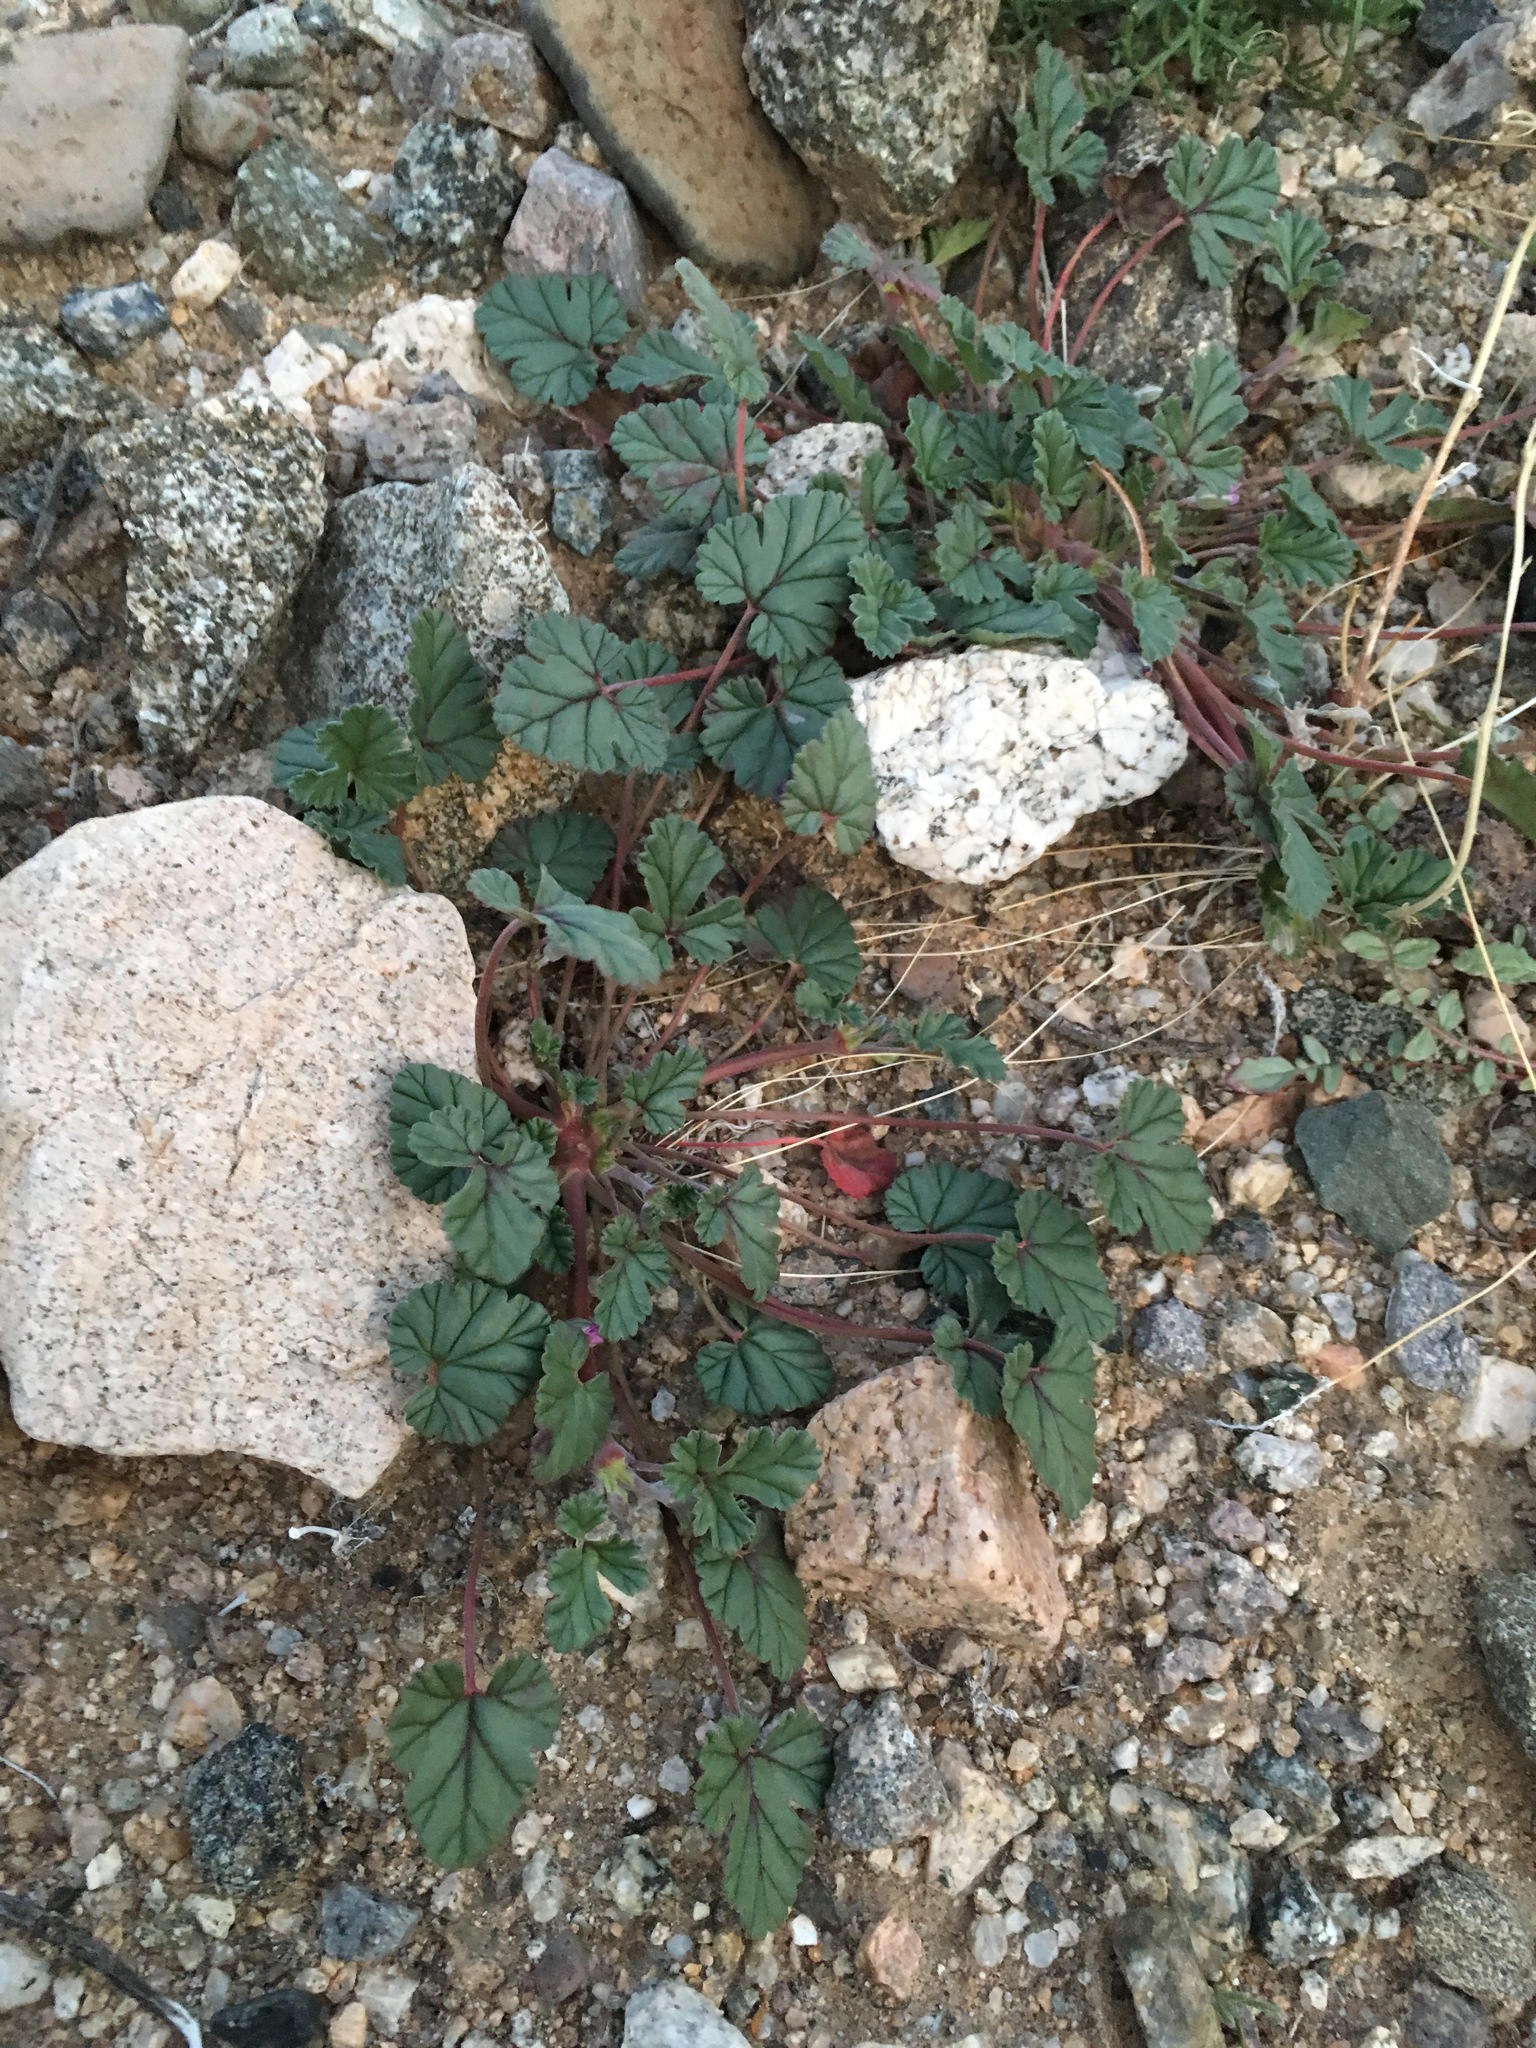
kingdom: Plantae
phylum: Tracheophyta
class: Magnoliopsida
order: Geraniales
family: Geraniaceae
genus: Erodium
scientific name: Erodium texanum
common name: Texas stork's-bill
